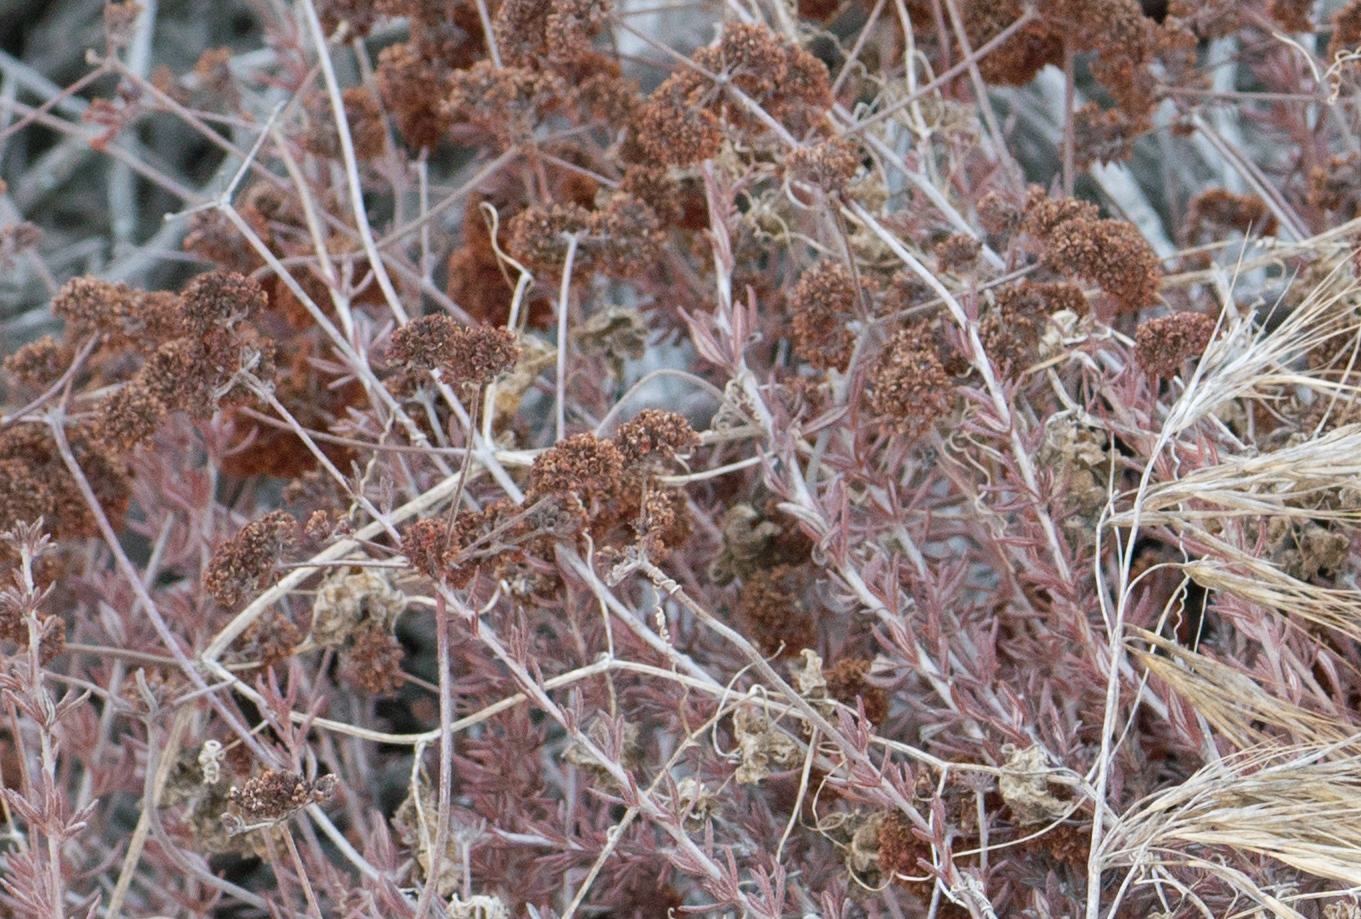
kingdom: Plantae
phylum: Tracheophyta
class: Magnoliopsida
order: Caryophyllales
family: Polygonaceae
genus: Eriogonum
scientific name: Eriogonum fasciculatum
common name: California wild buckwheat
